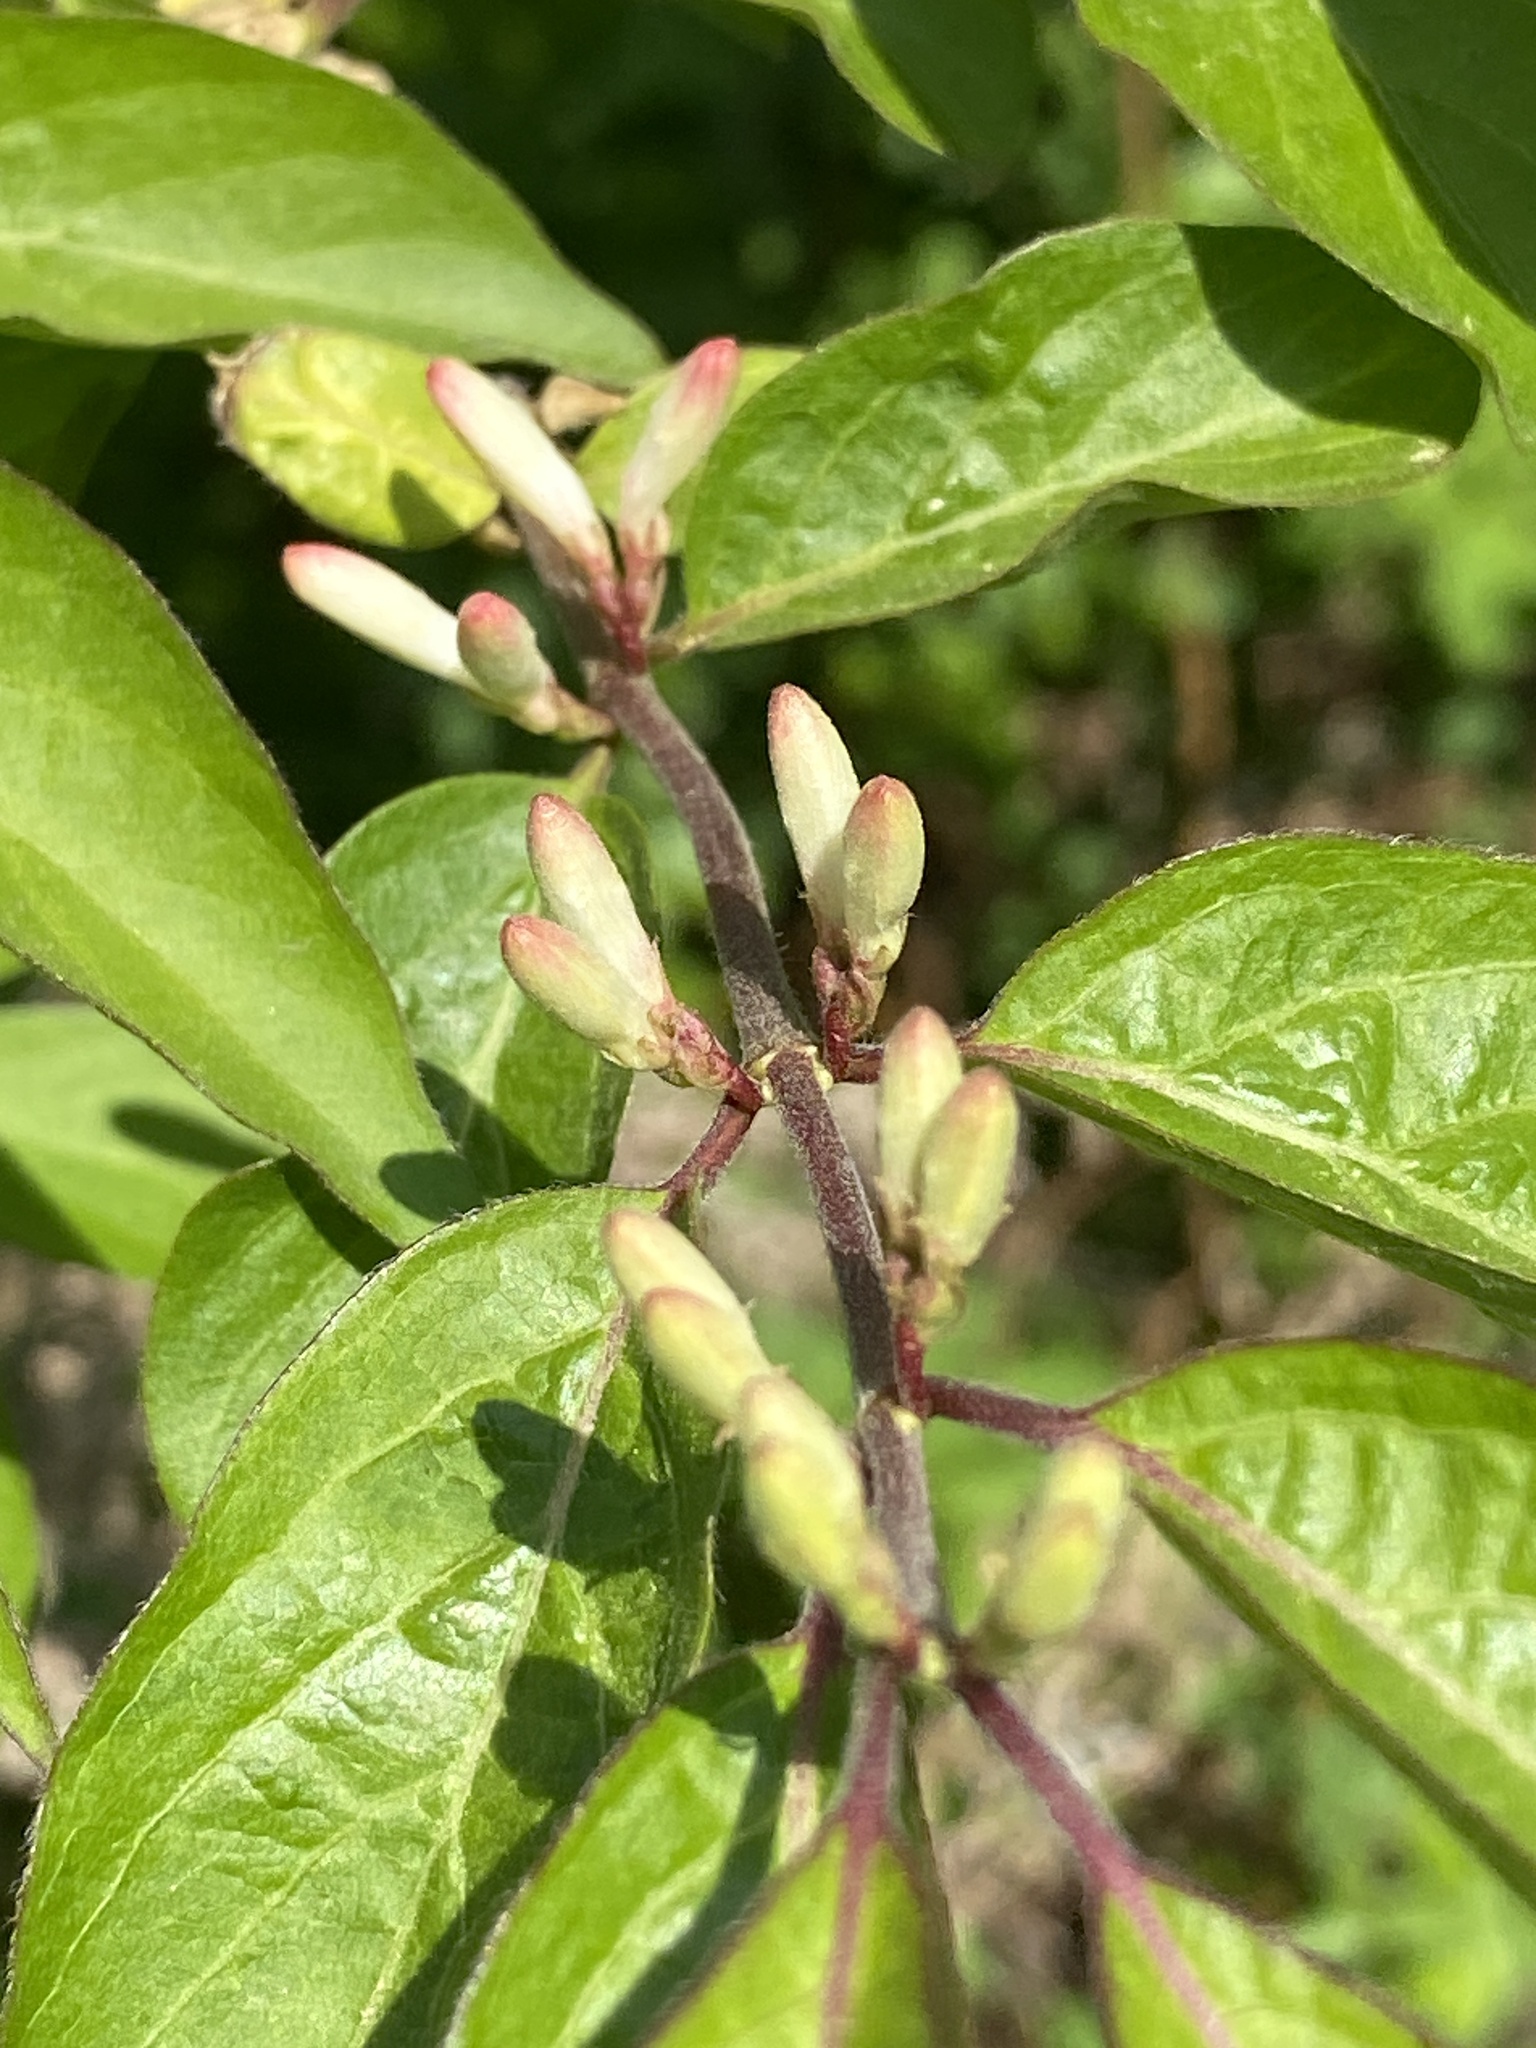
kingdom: Plantae
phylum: Tracheophyta
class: Magnoliopsida
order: Dipsacales
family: Caprifoliaceae
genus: Lonicera
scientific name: Lonicera maackii
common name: Amur honeysuckle
